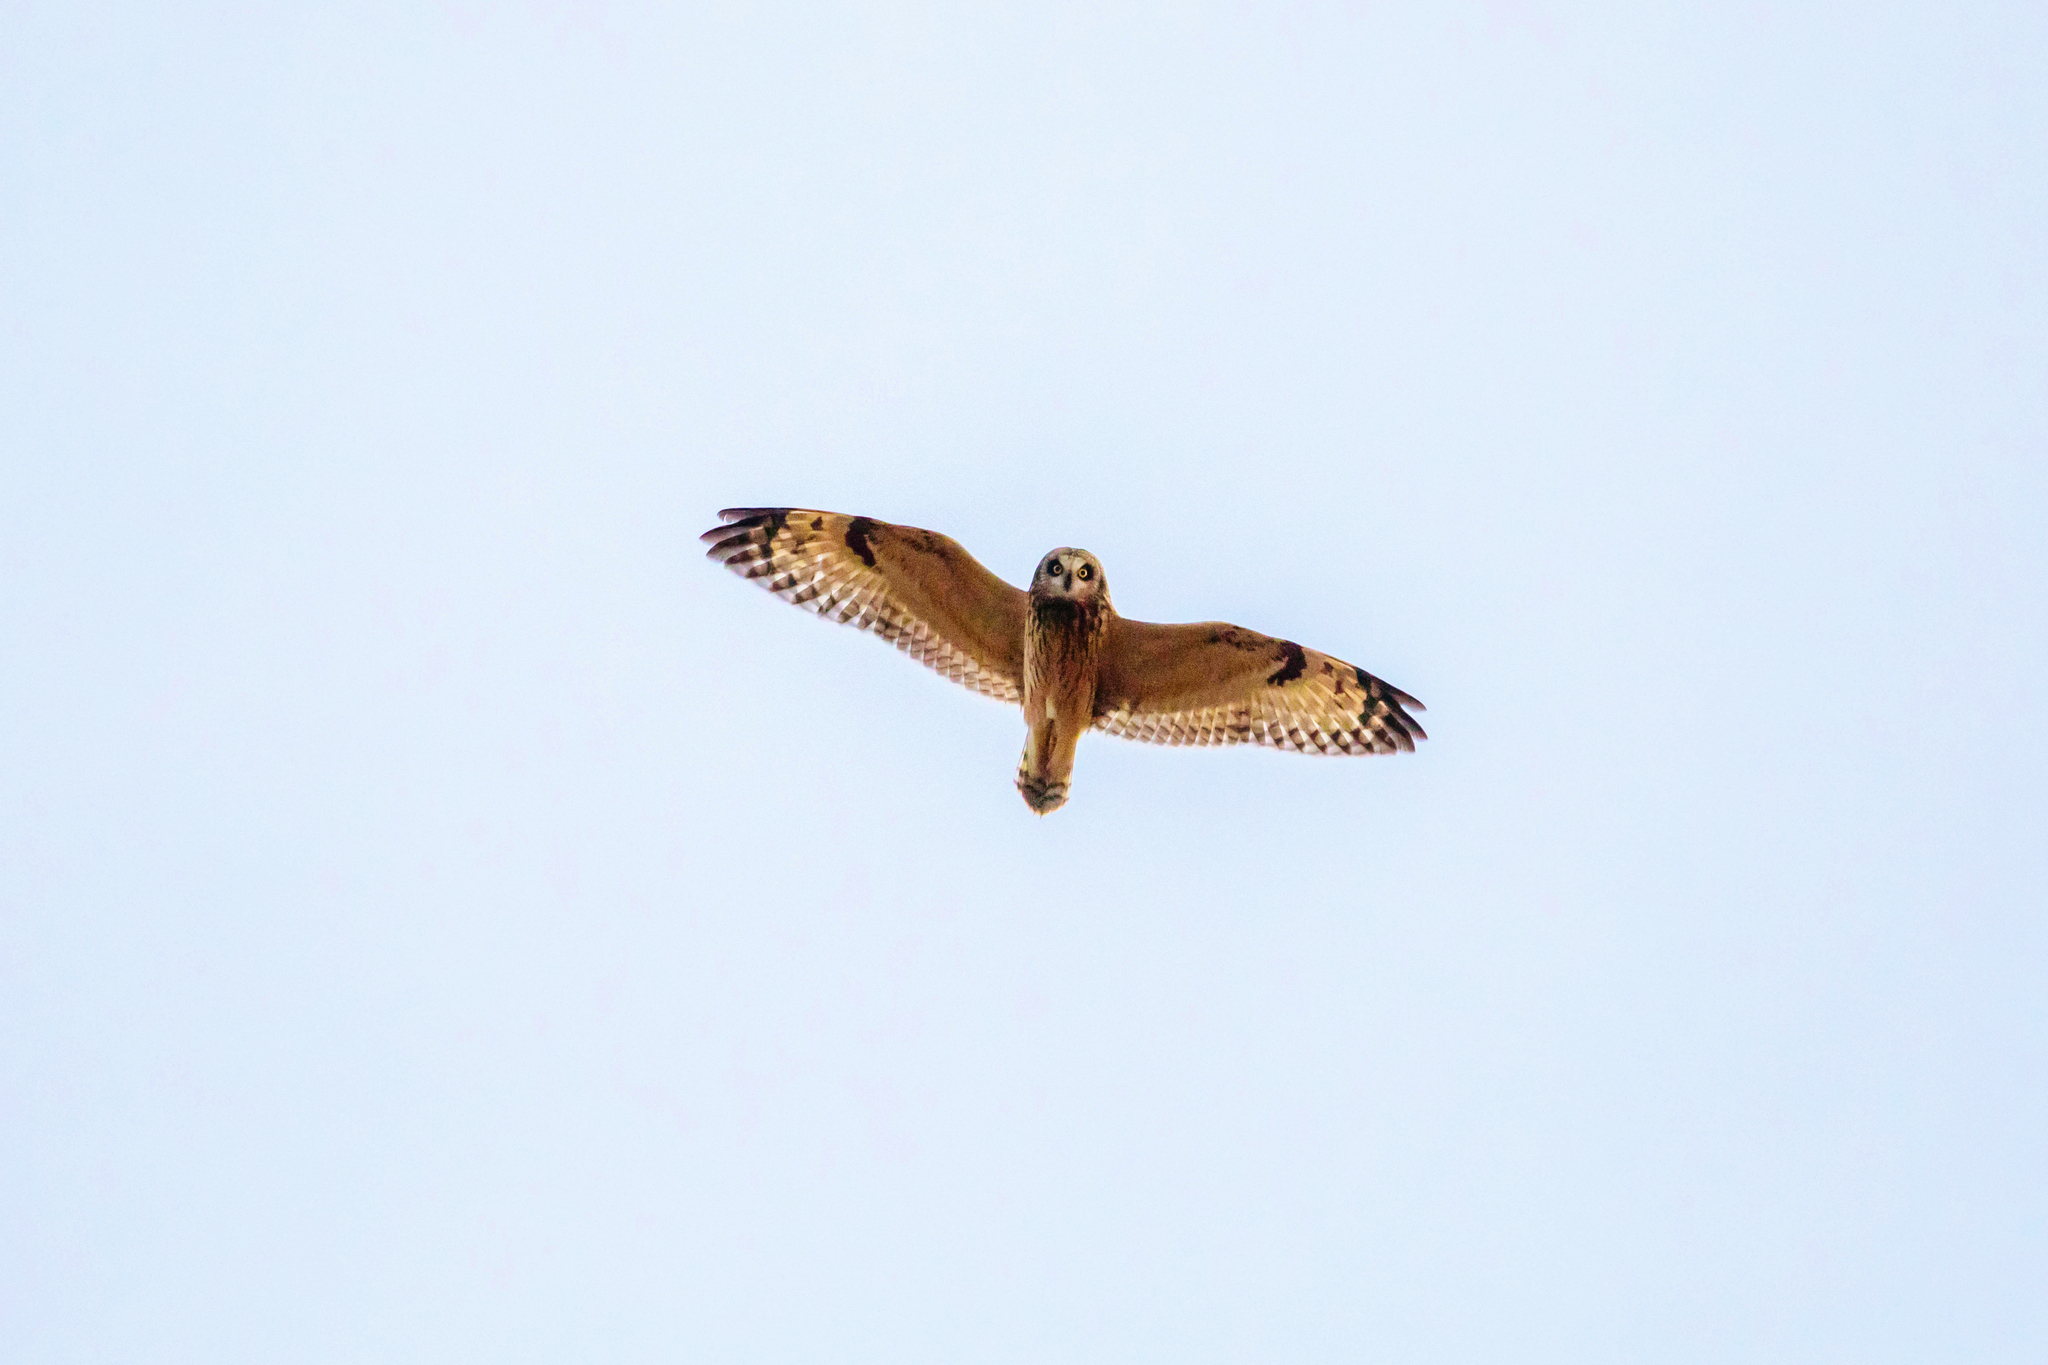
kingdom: Animalia
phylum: Chordata
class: Aves
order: Strigiformes
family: Strigidae
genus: Asio
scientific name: Asio flammeus
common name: Short-eared owl
